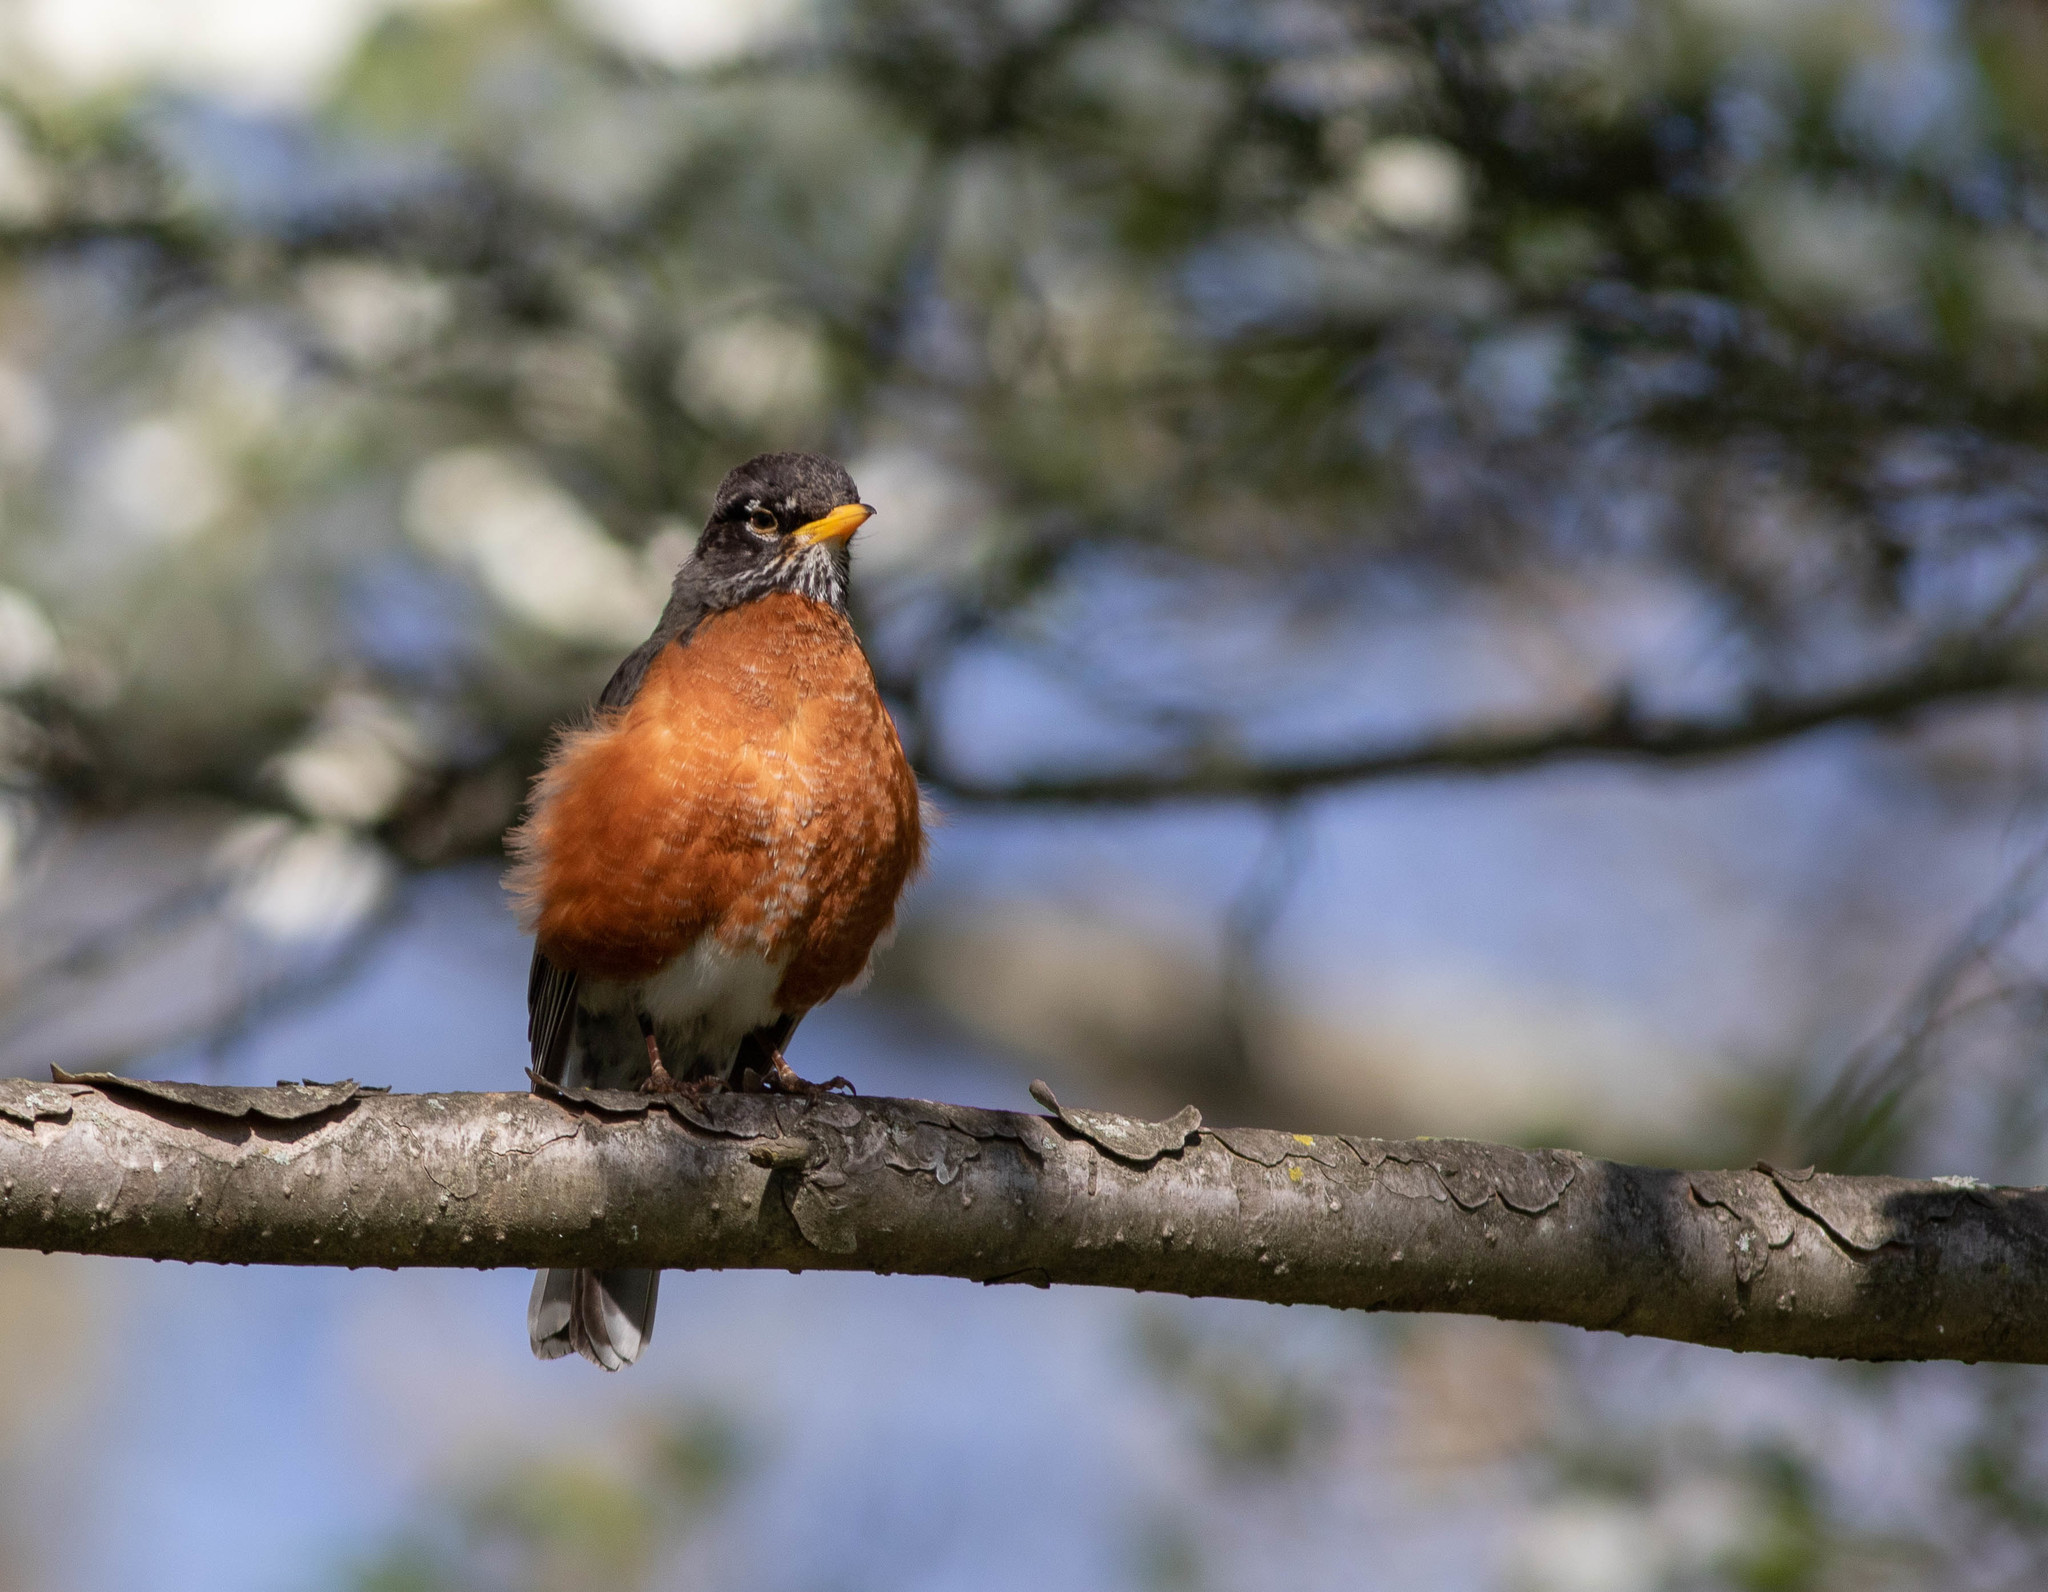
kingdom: Animalia
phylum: Chordata
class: Aves
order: Passeriformes
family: Turdidae
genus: Turdus
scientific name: Turdus migratorius
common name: American robin
